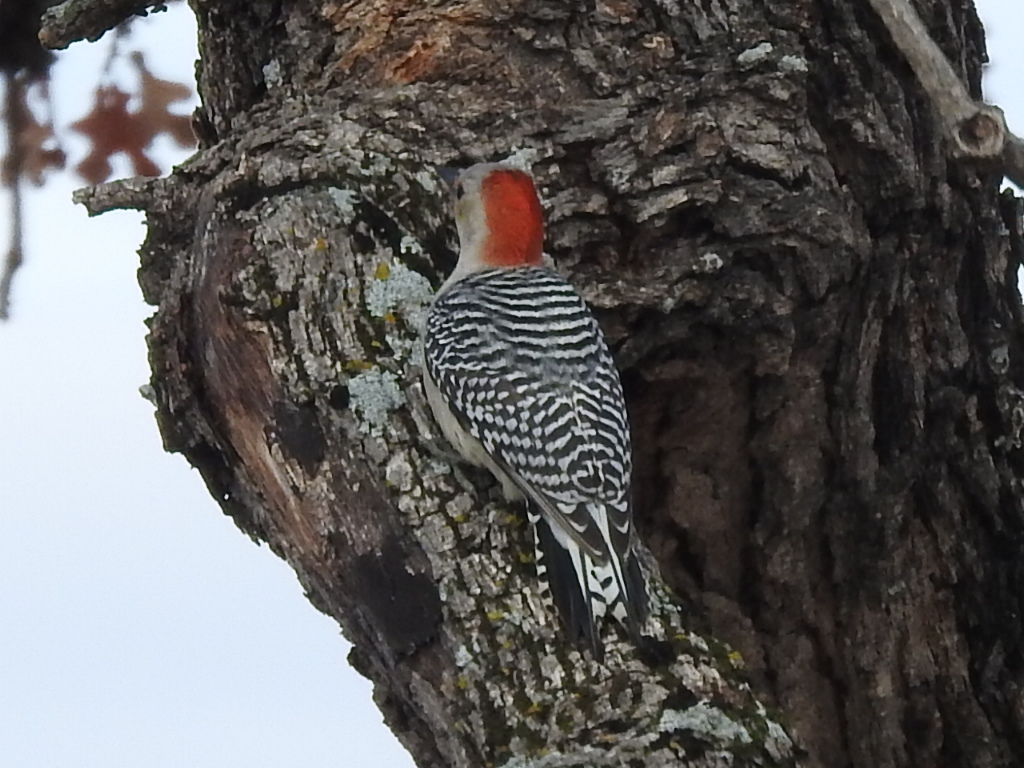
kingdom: Animalia
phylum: Chordata
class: Aves
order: Piciformes
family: Picidae
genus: Melanerpes
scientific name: Melanerpes carolinus
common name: Red-bellied woodpecker
